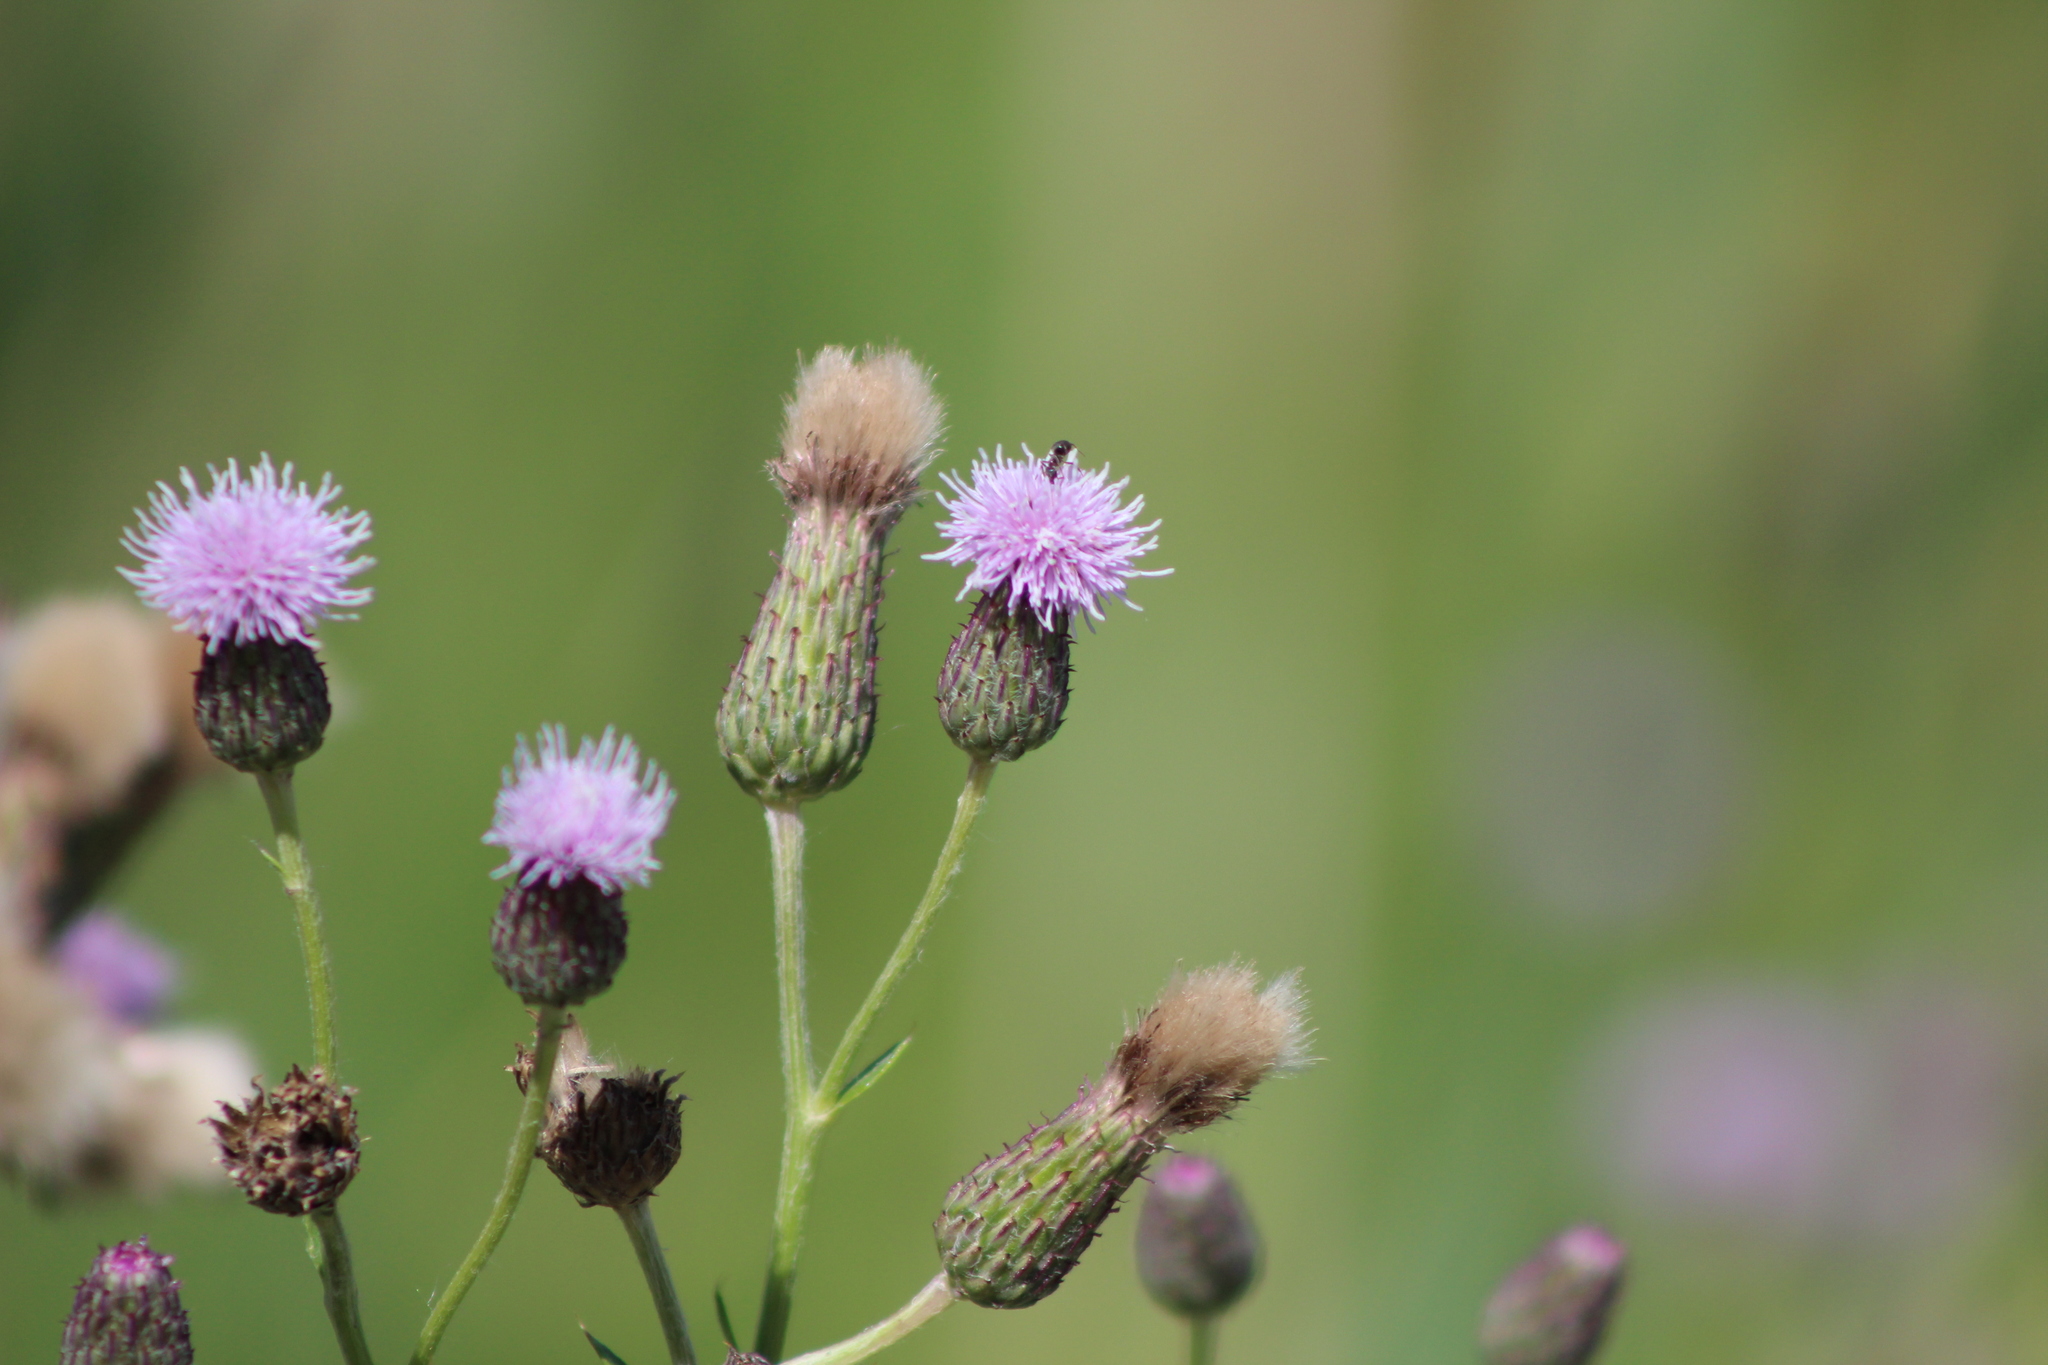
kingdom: Plantae
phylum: Tracheophyta
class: Magnoliopsida
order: Asterales
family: Asteraceae
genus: Cirsium
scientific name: Cirsium arvense
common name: Creeping thistle
